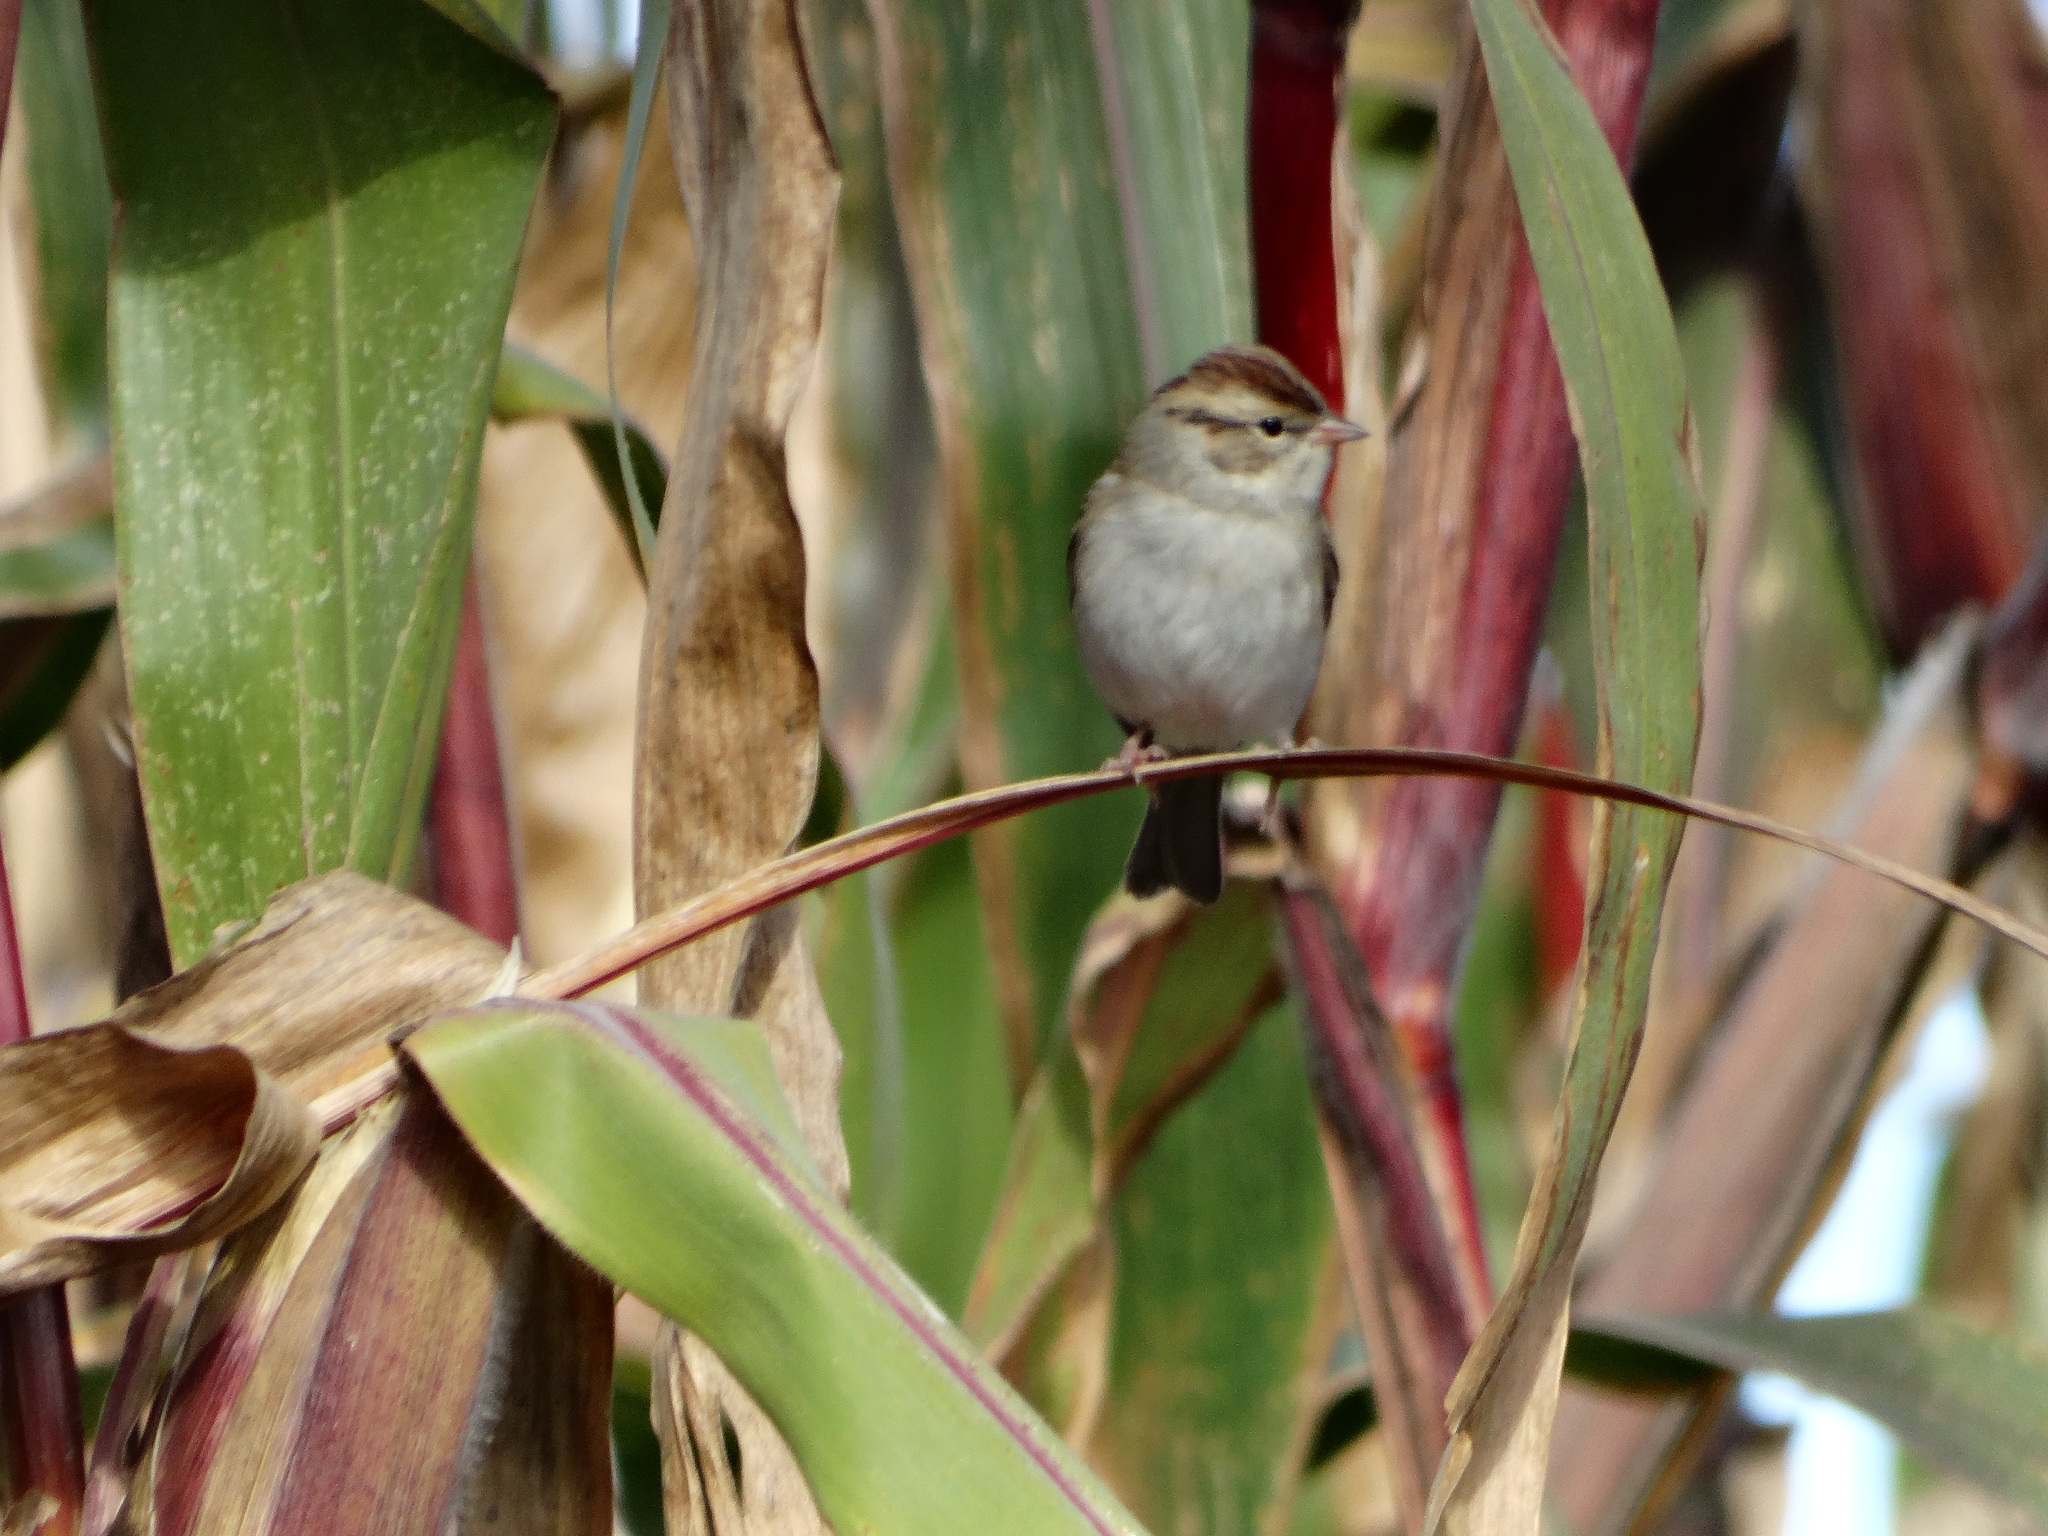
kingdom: Animalia
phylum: Chordata
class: Aves
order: Passeriformes
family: Passerellidae
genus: Spizella
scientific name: Spizella passerina
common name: Chipping sparrow
